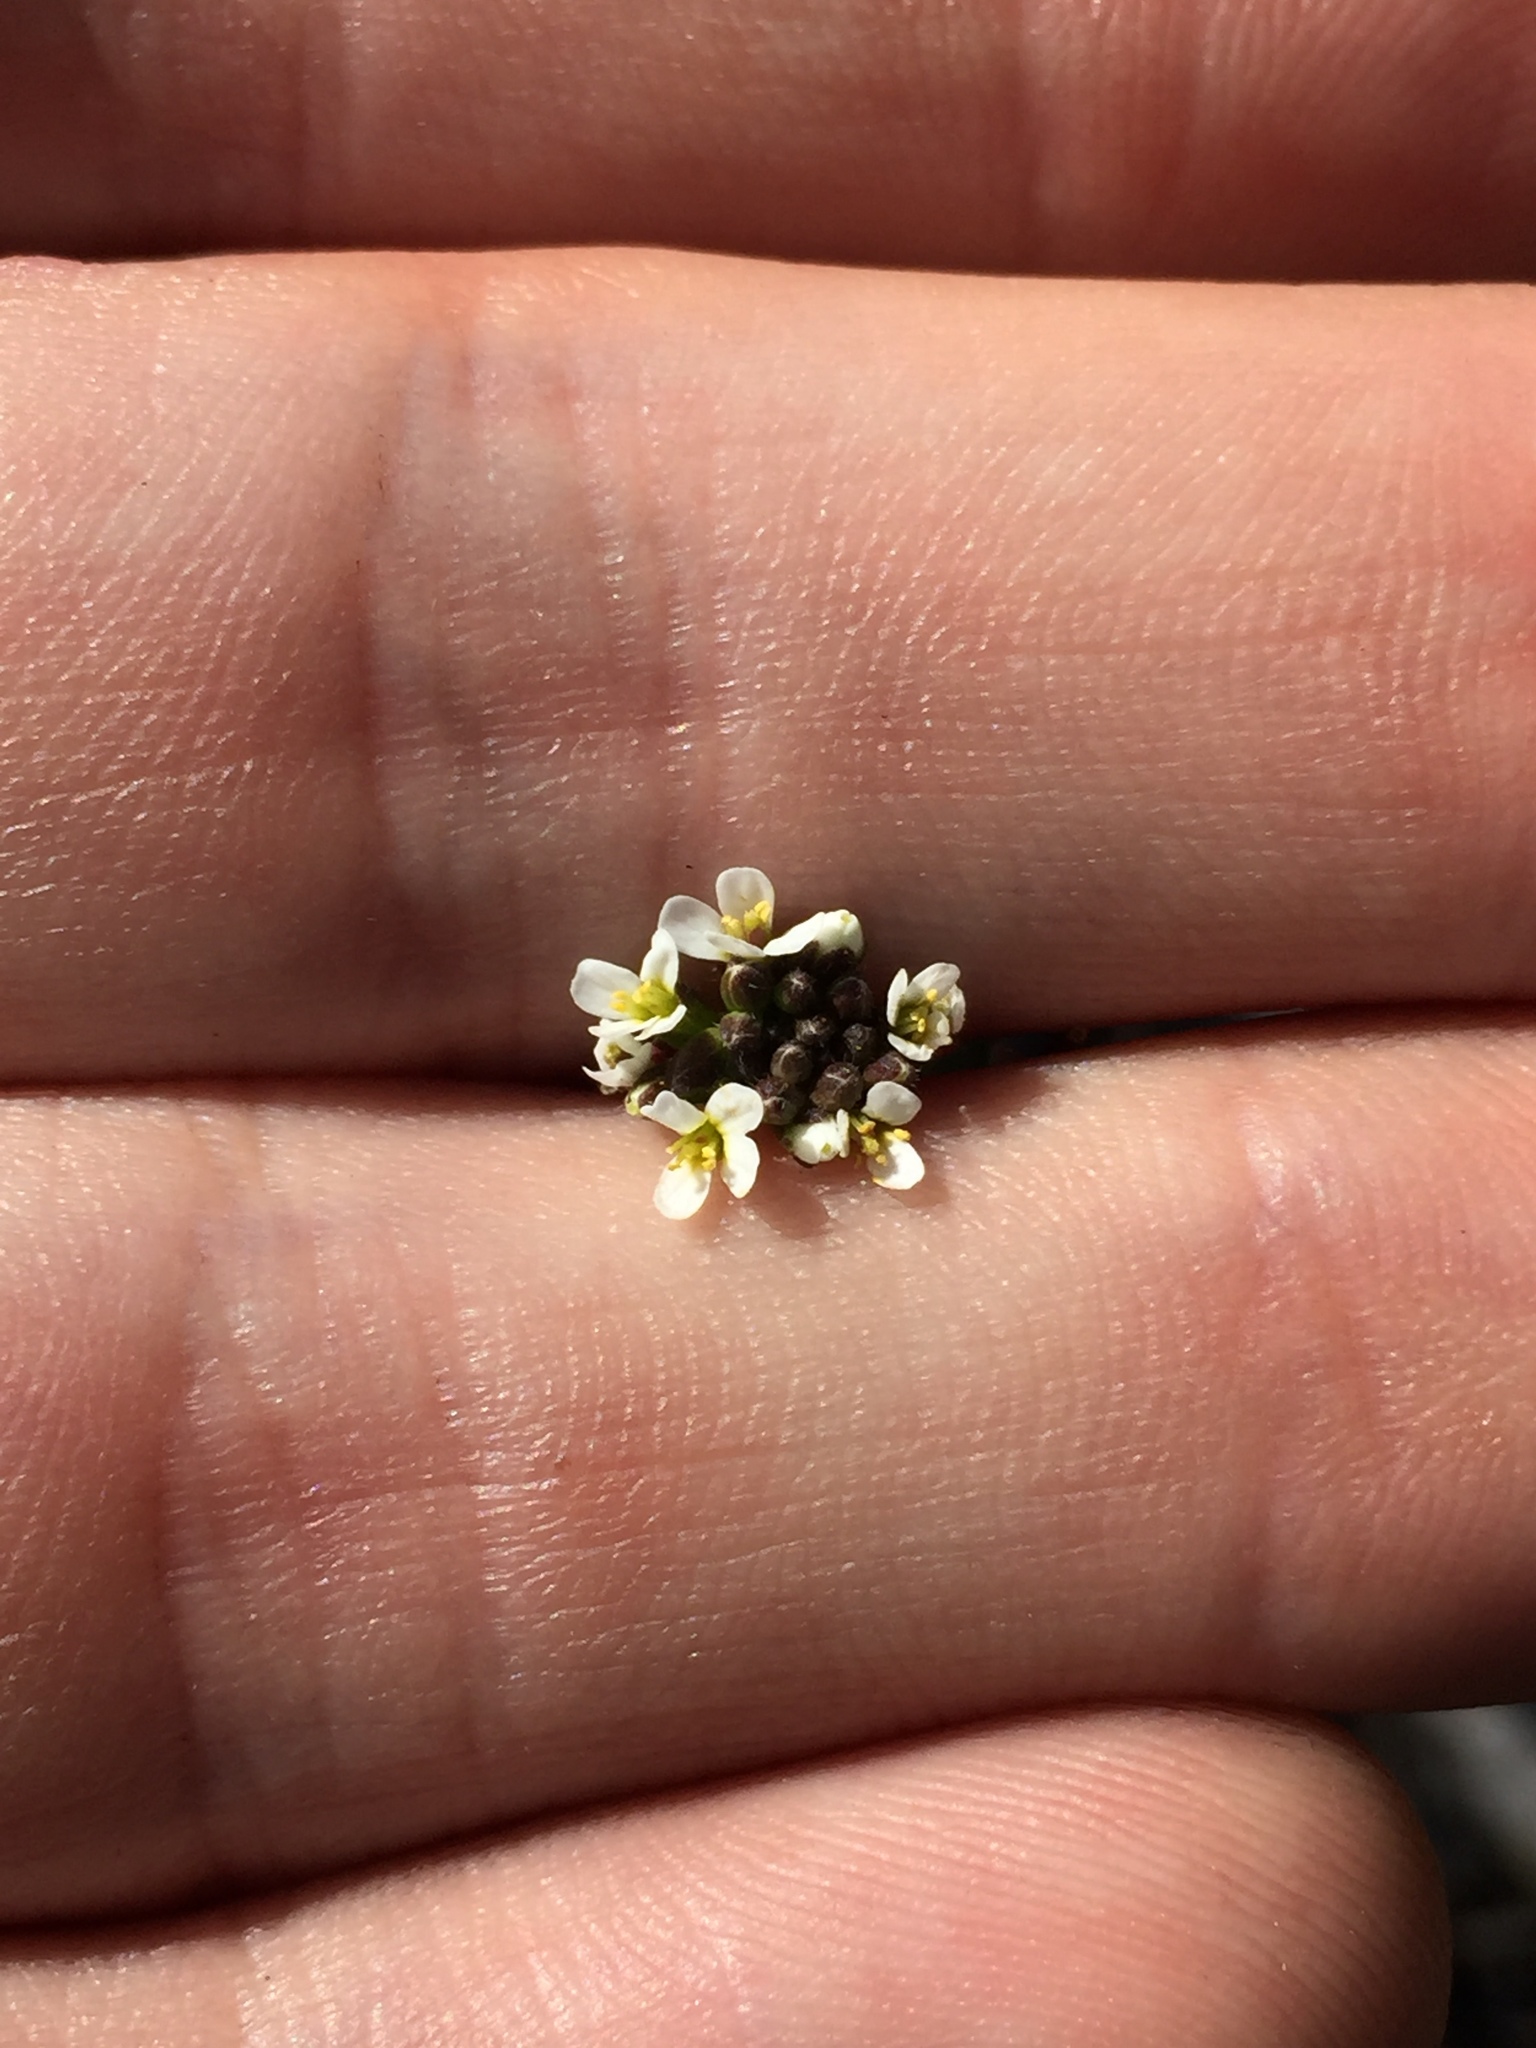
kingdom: Plantae
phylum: Tracheophyta
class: Magnoliopsida
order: Brassicales
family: Brassicaceae
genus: Arabidopsis
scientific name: Arabidopsis thaliana
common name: Thale cress
